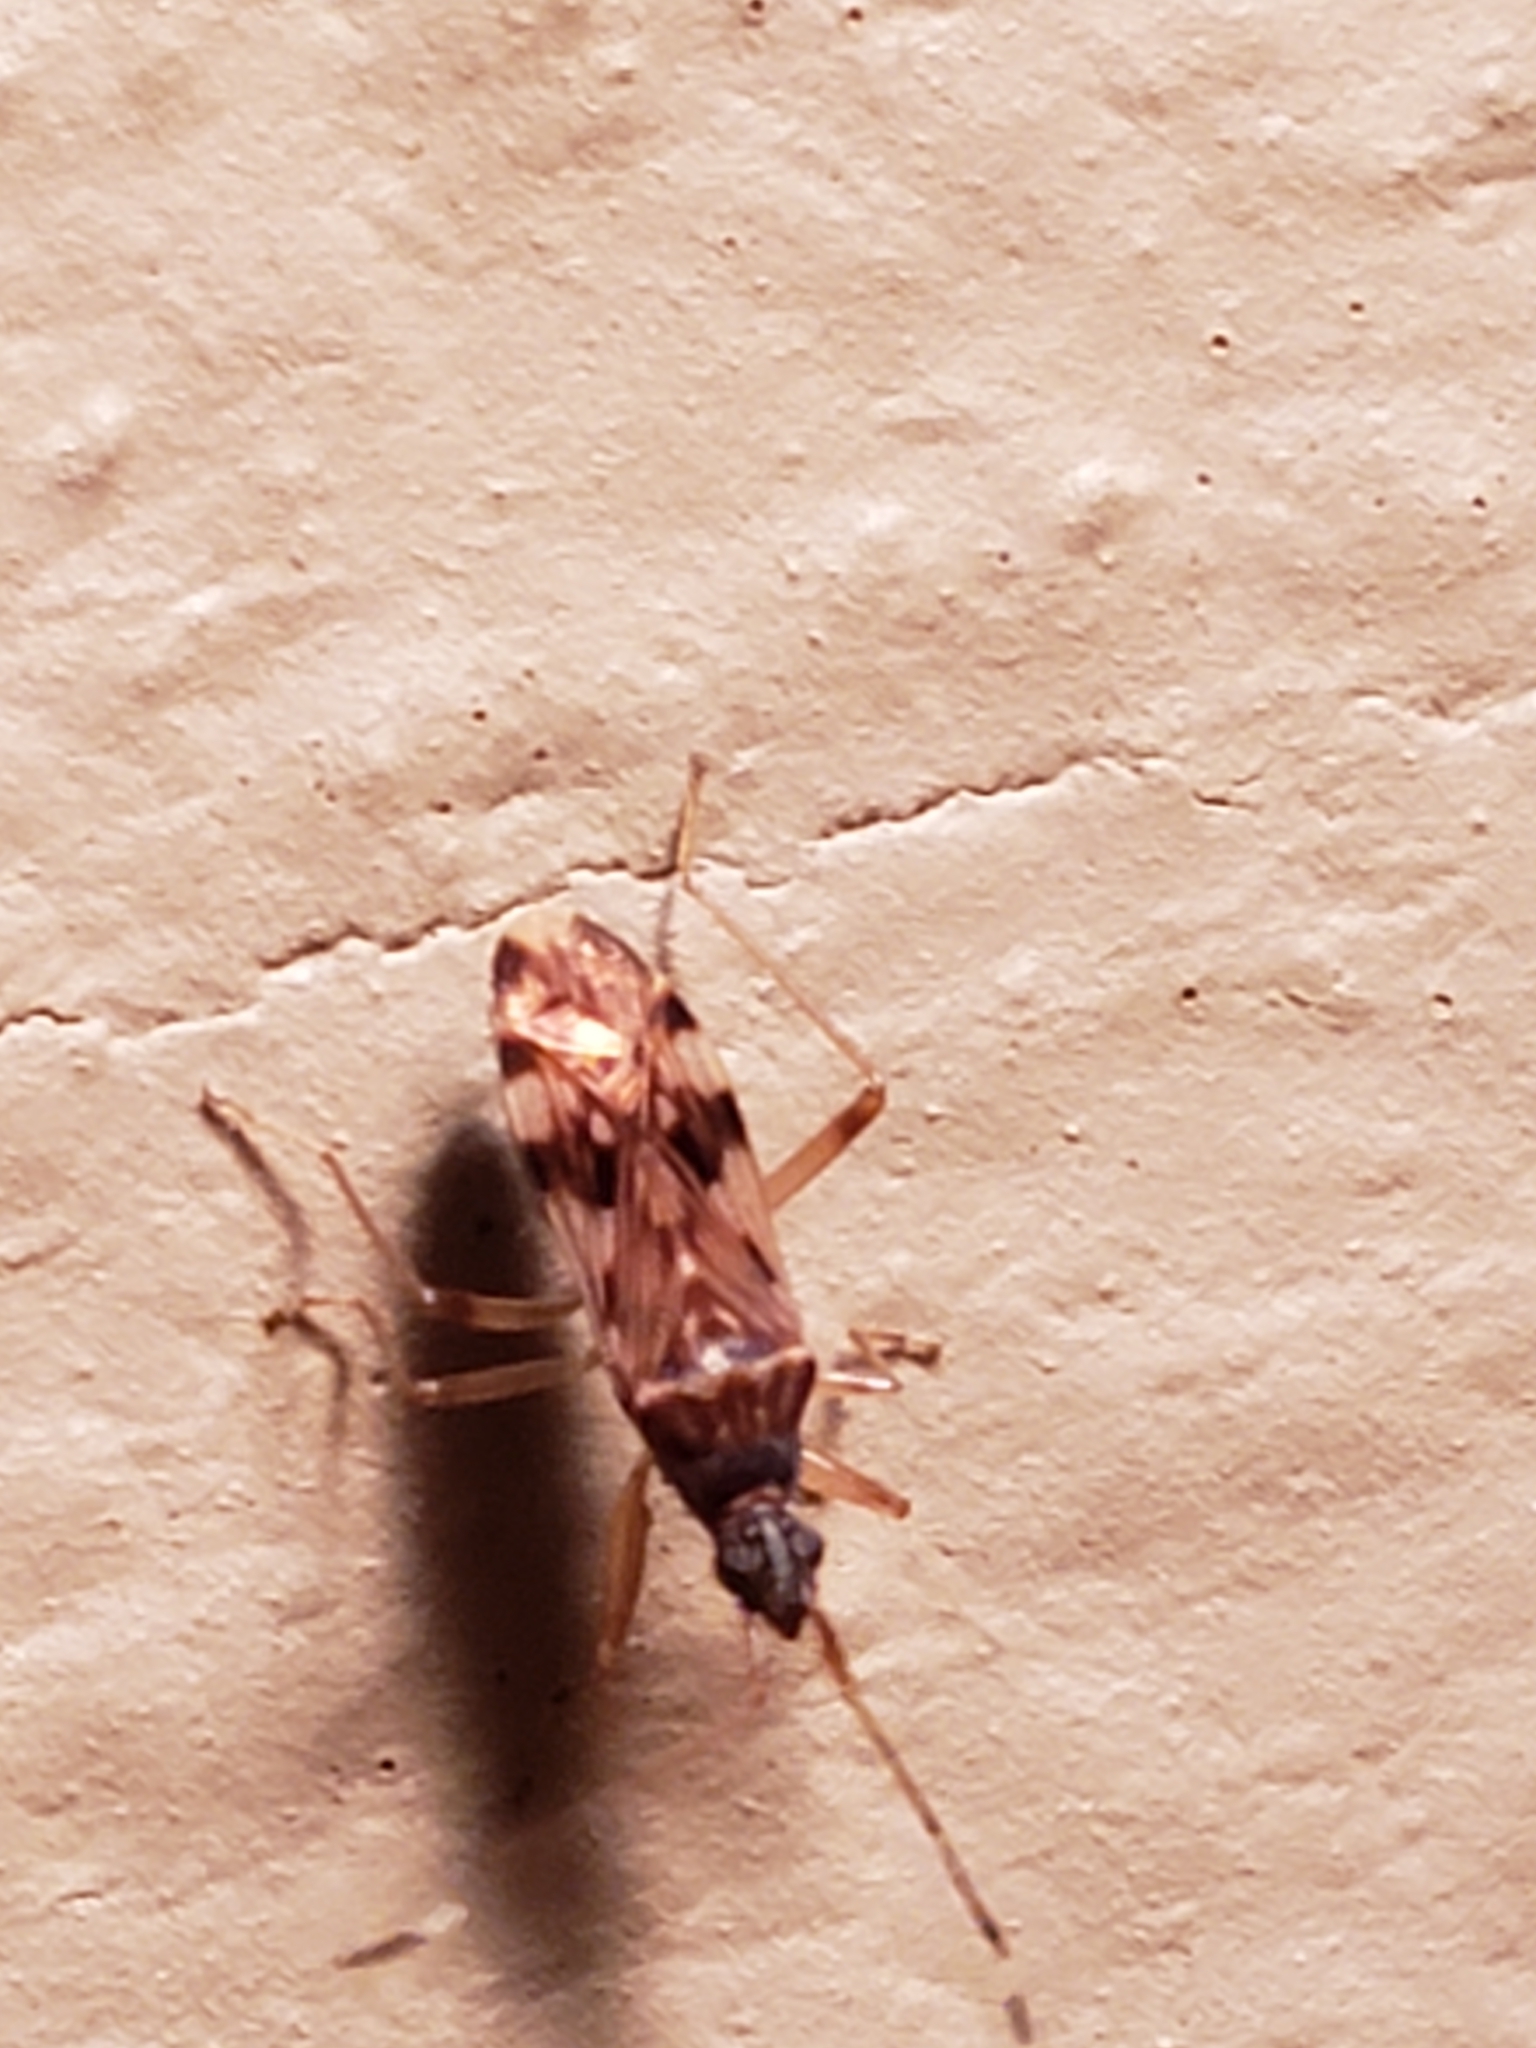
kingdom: Animalia
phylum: Arthropoda
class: Insecta
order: Hemiptera
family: Rhyparochromidae
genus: Ozophora
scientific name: Ozophora picturata
